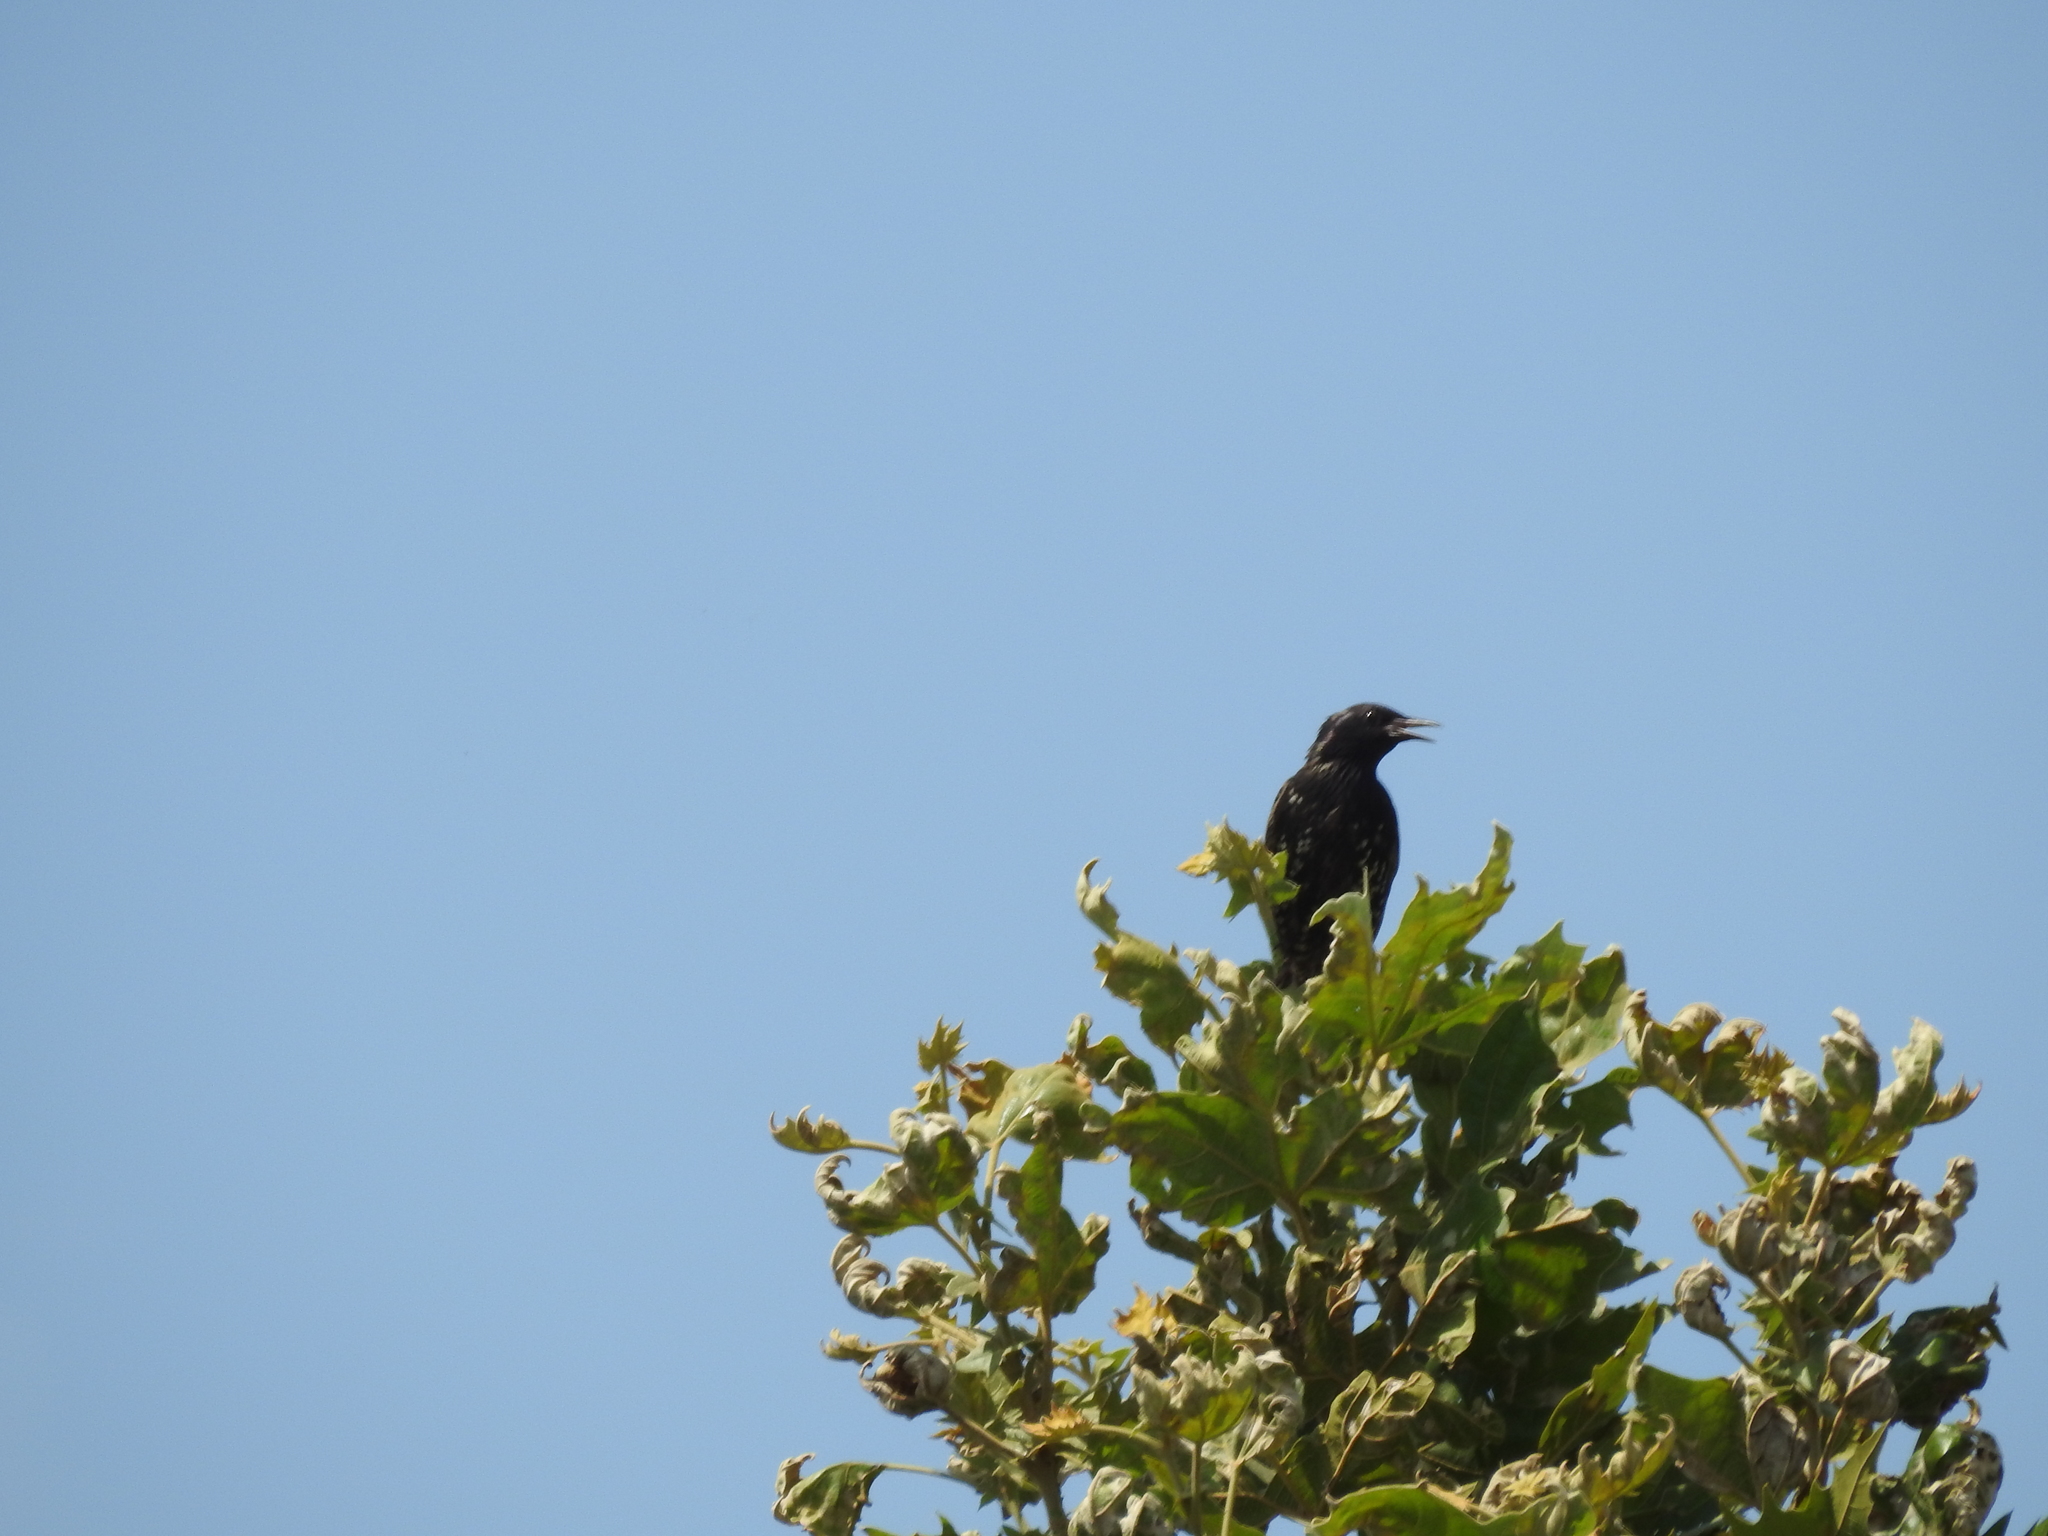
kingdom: Animalia
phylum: Chordata
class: Aves
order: Passeriformes
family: Sturnidae
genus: Sturnus
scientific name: Sturnus vulgaris
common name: Common starling
